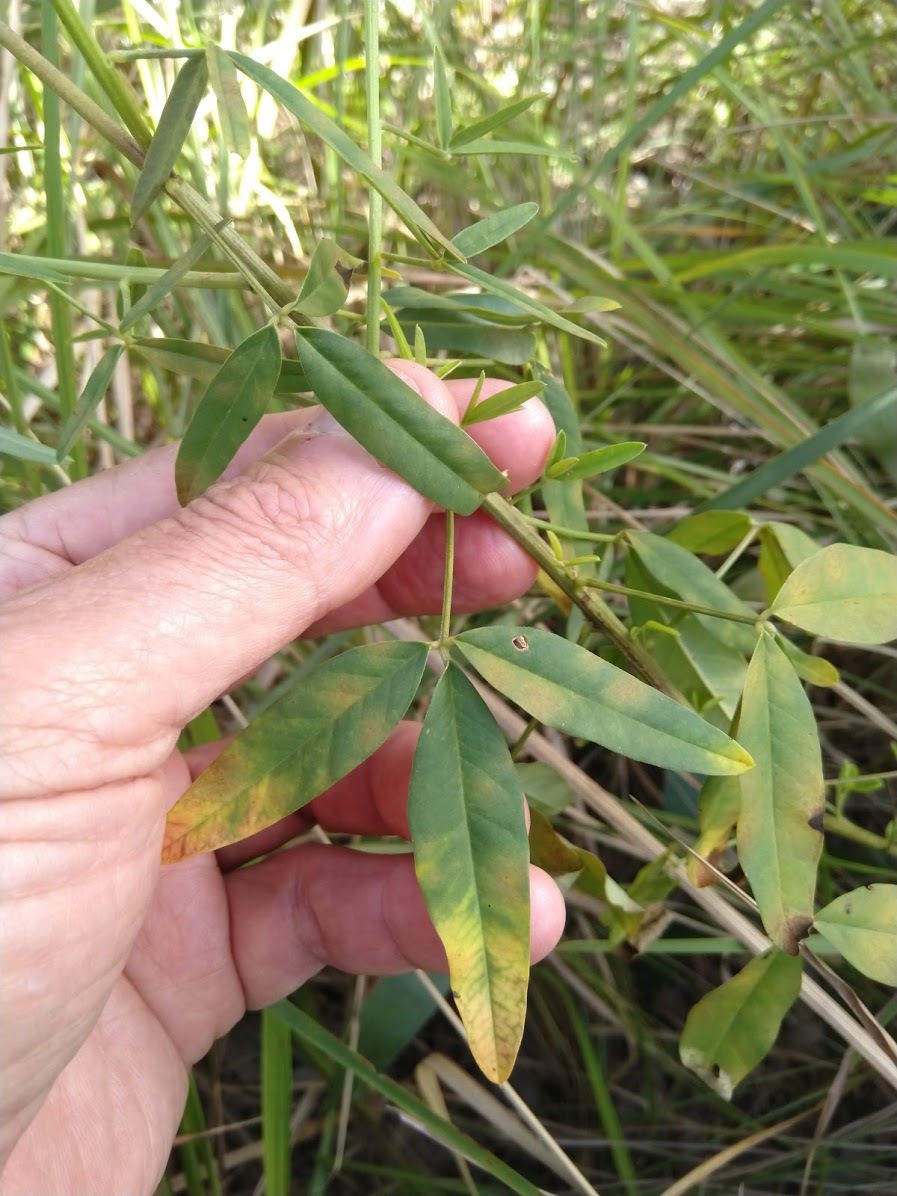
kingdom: Plantae
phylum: Tracheophyta
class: Magnoliopsida
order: Fabales
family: Fabaceae
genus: Crotalaria
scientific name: Crotalaria lanceolata
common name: Lanceleaf rattlebox
